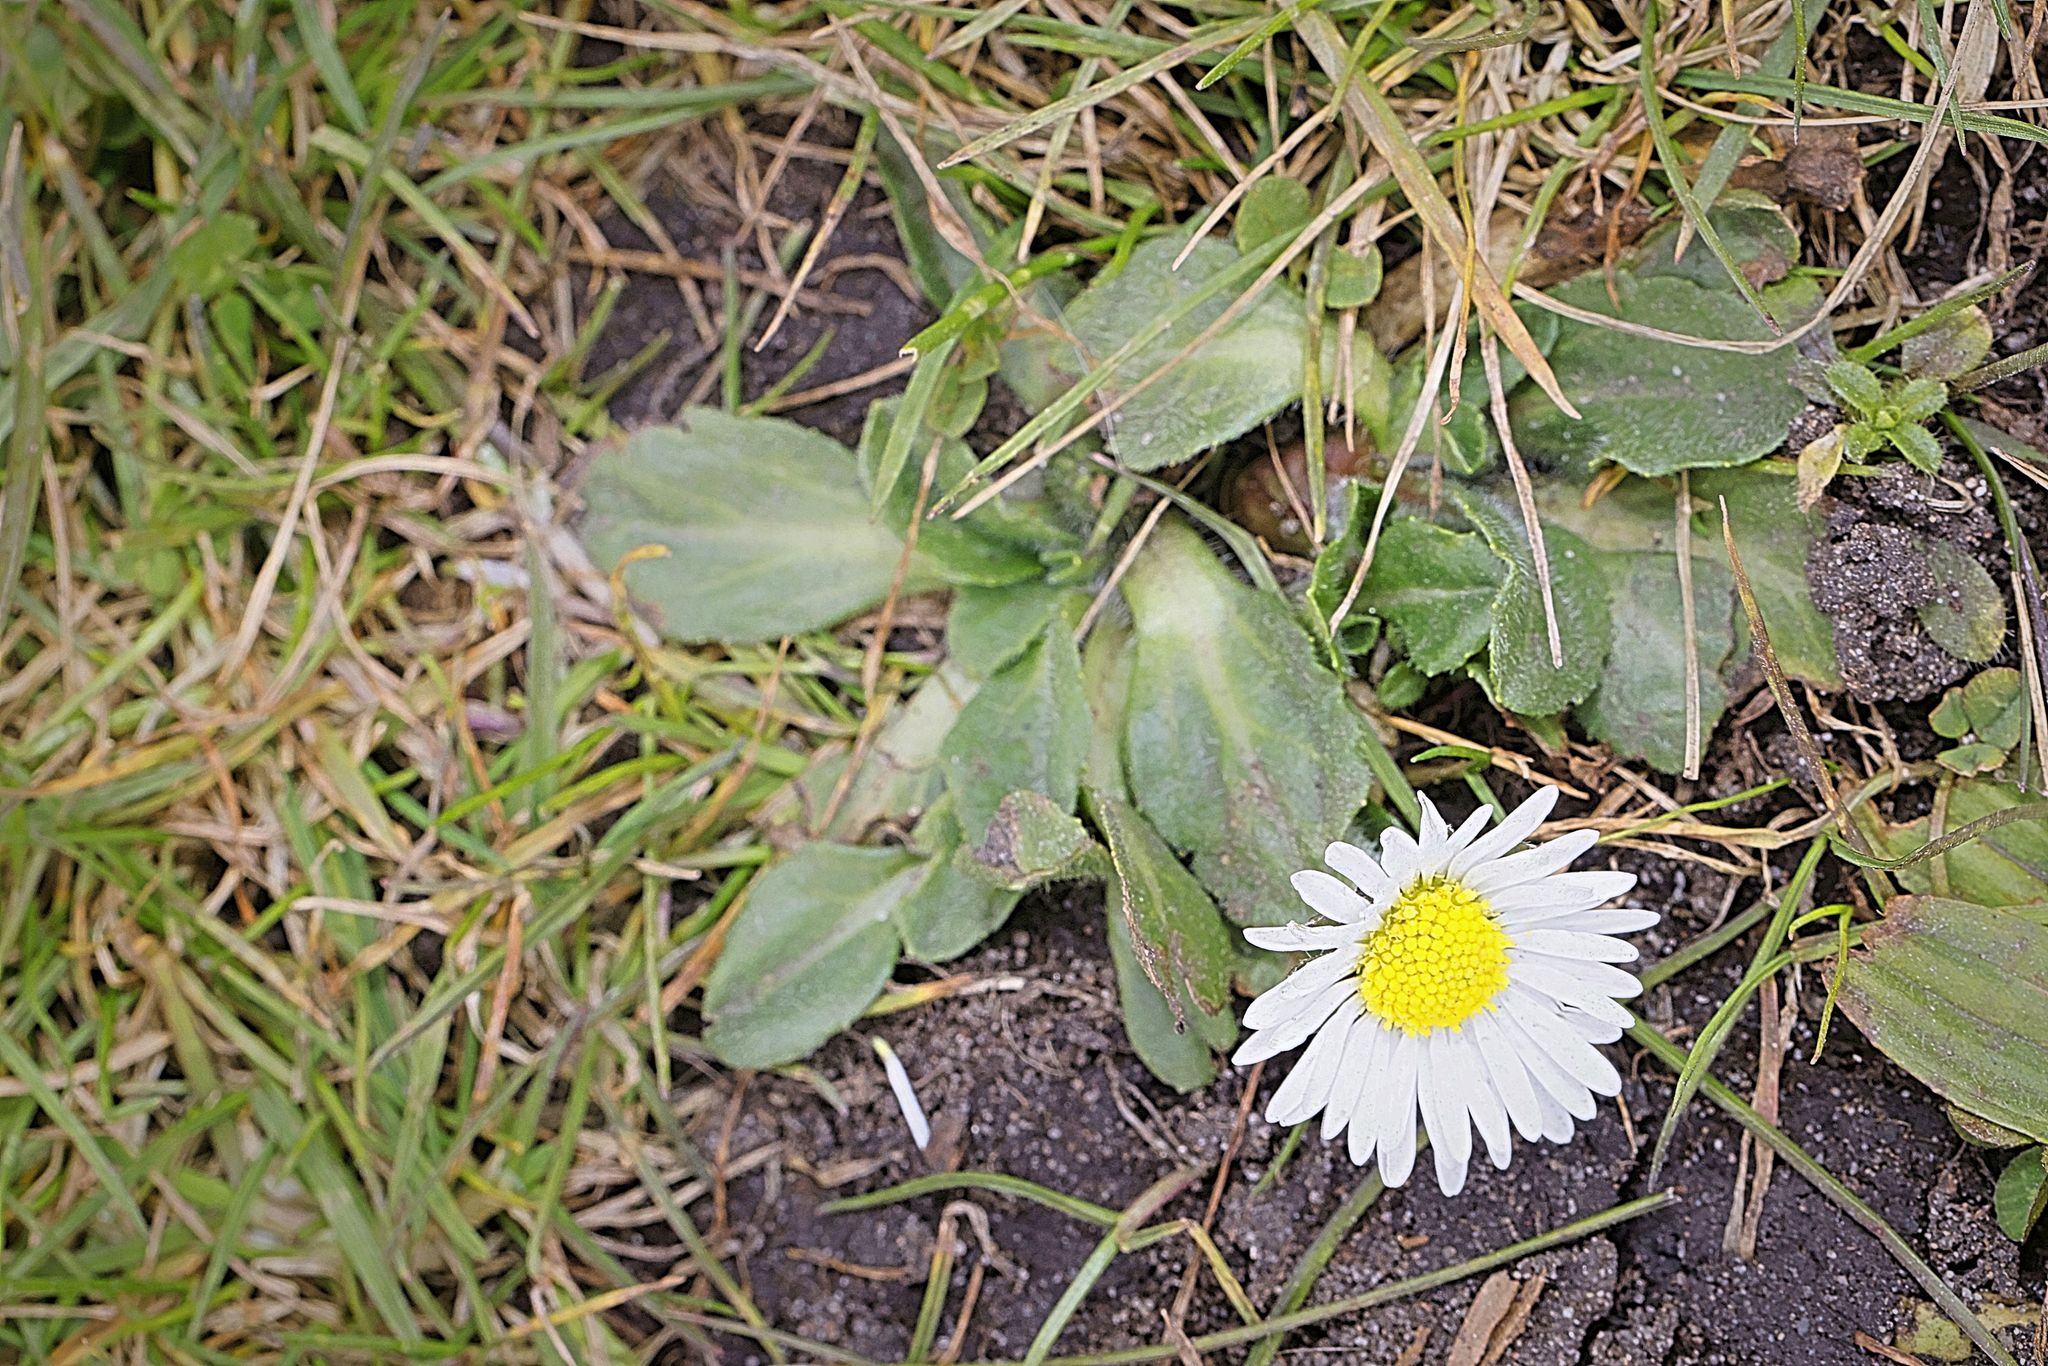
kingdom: Plantae
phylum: Tracheophyta
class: Magnoliopsida
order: Asterales
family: Asteraceae
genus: Bellis
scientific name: Bellis perennis
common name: Lawndaisy
